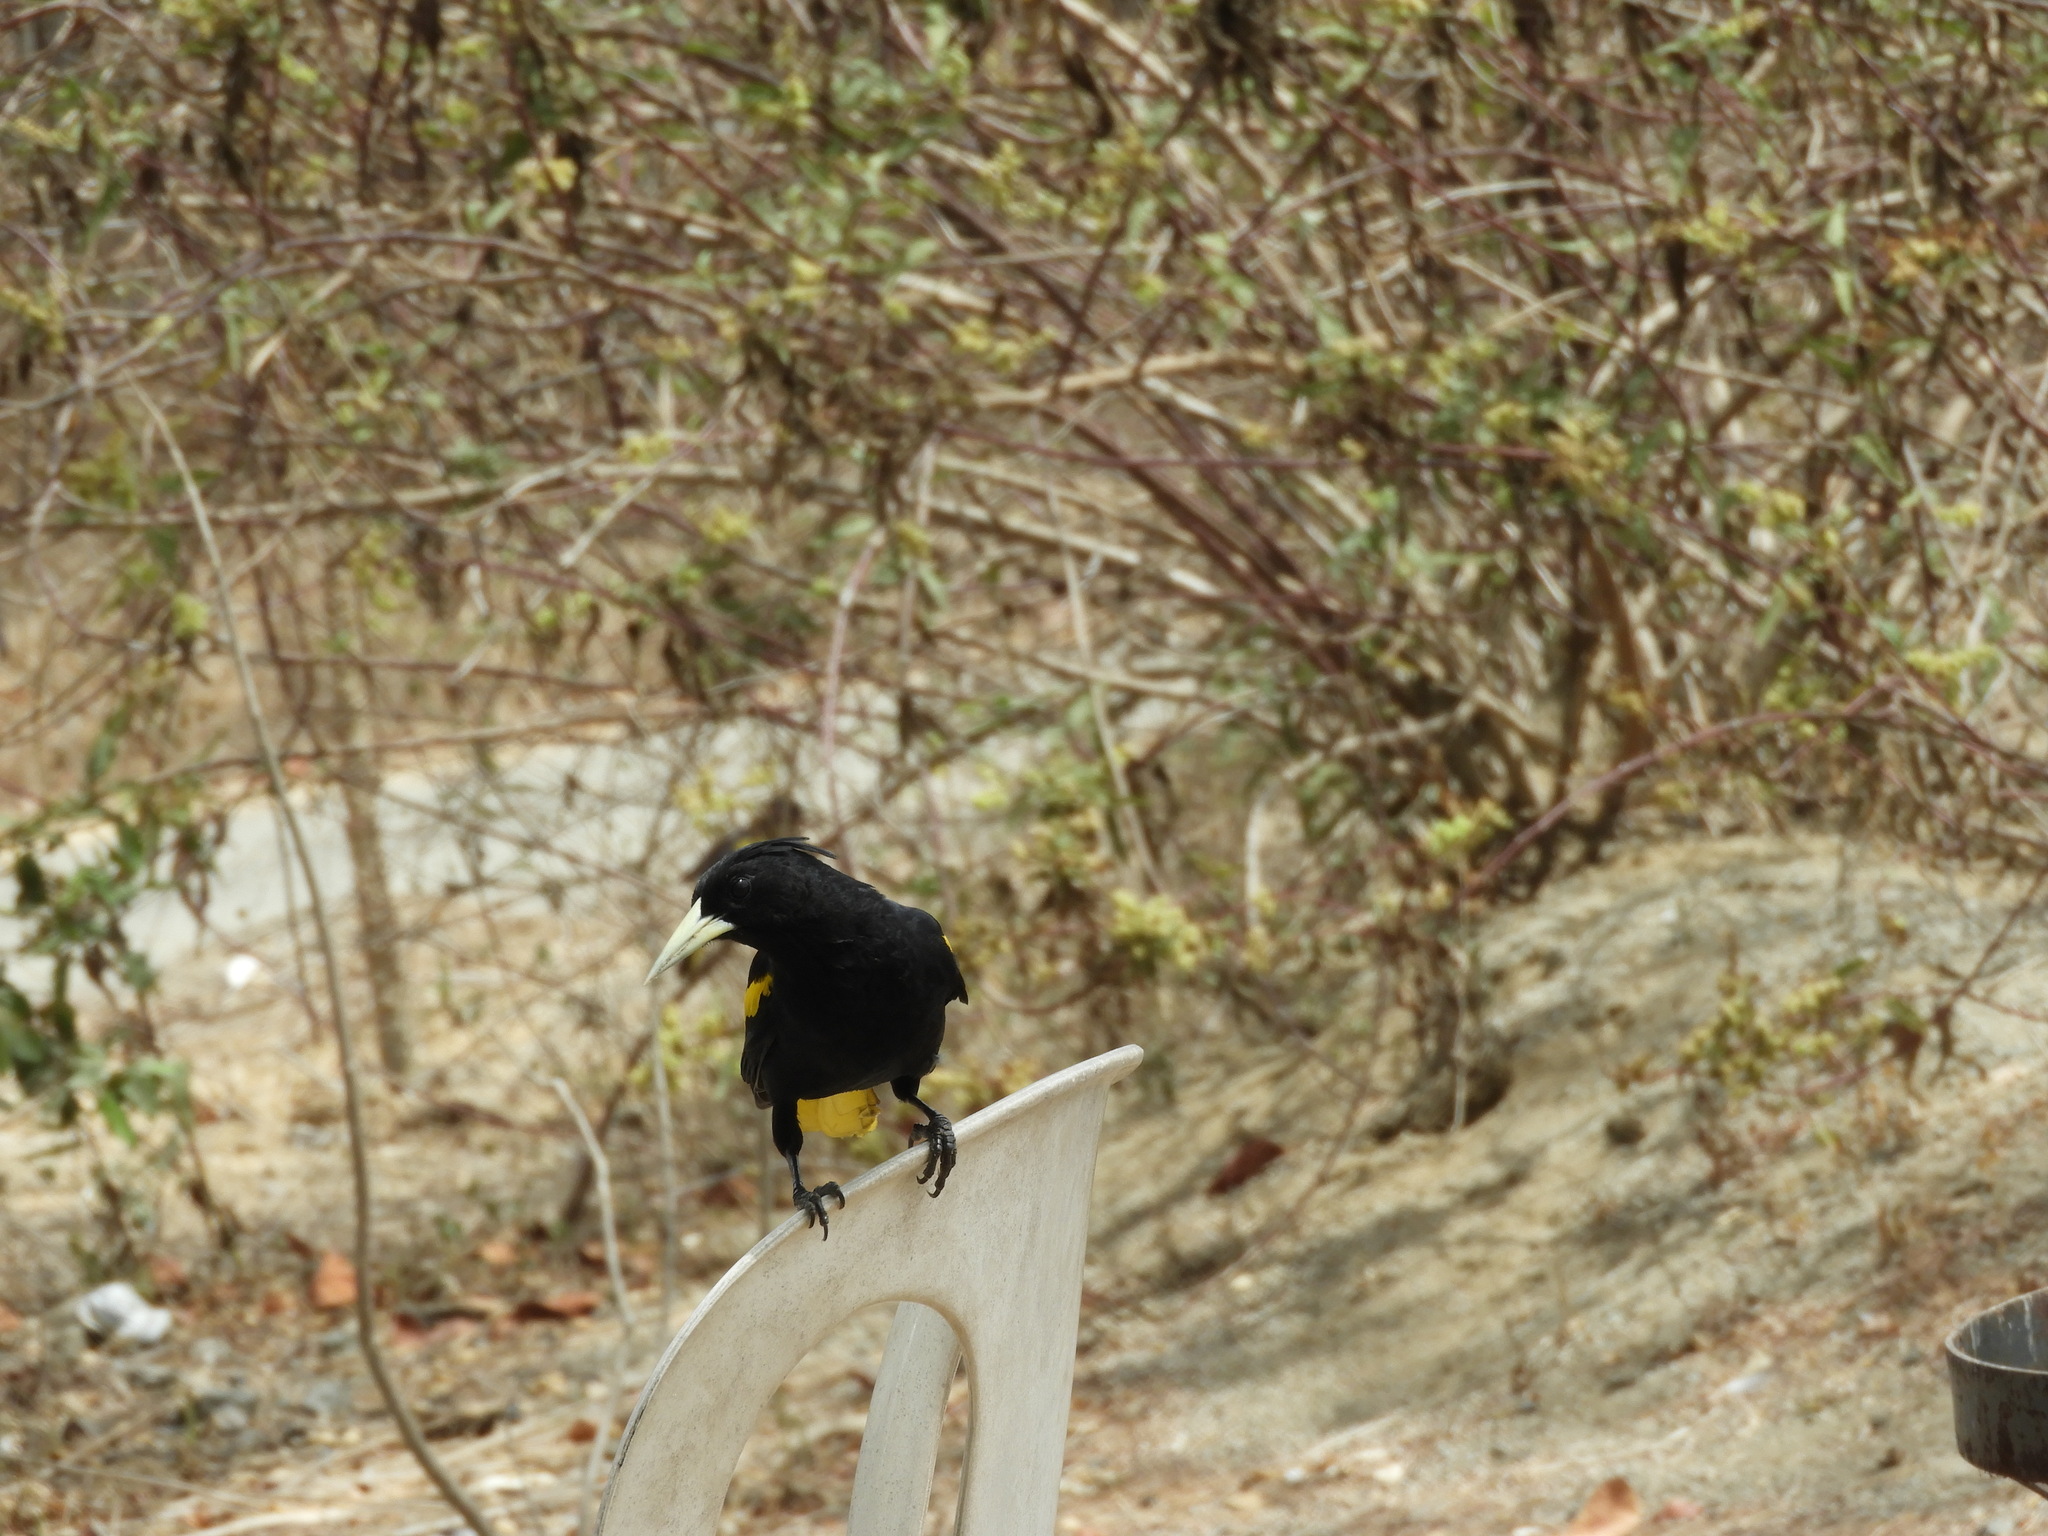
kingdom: Animalia
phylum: Chordata
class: Aves
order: Passeriformes
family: Icteridae
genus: Cacicus
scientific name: Cacicus melanicterus
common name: Yellow-winged cacique
